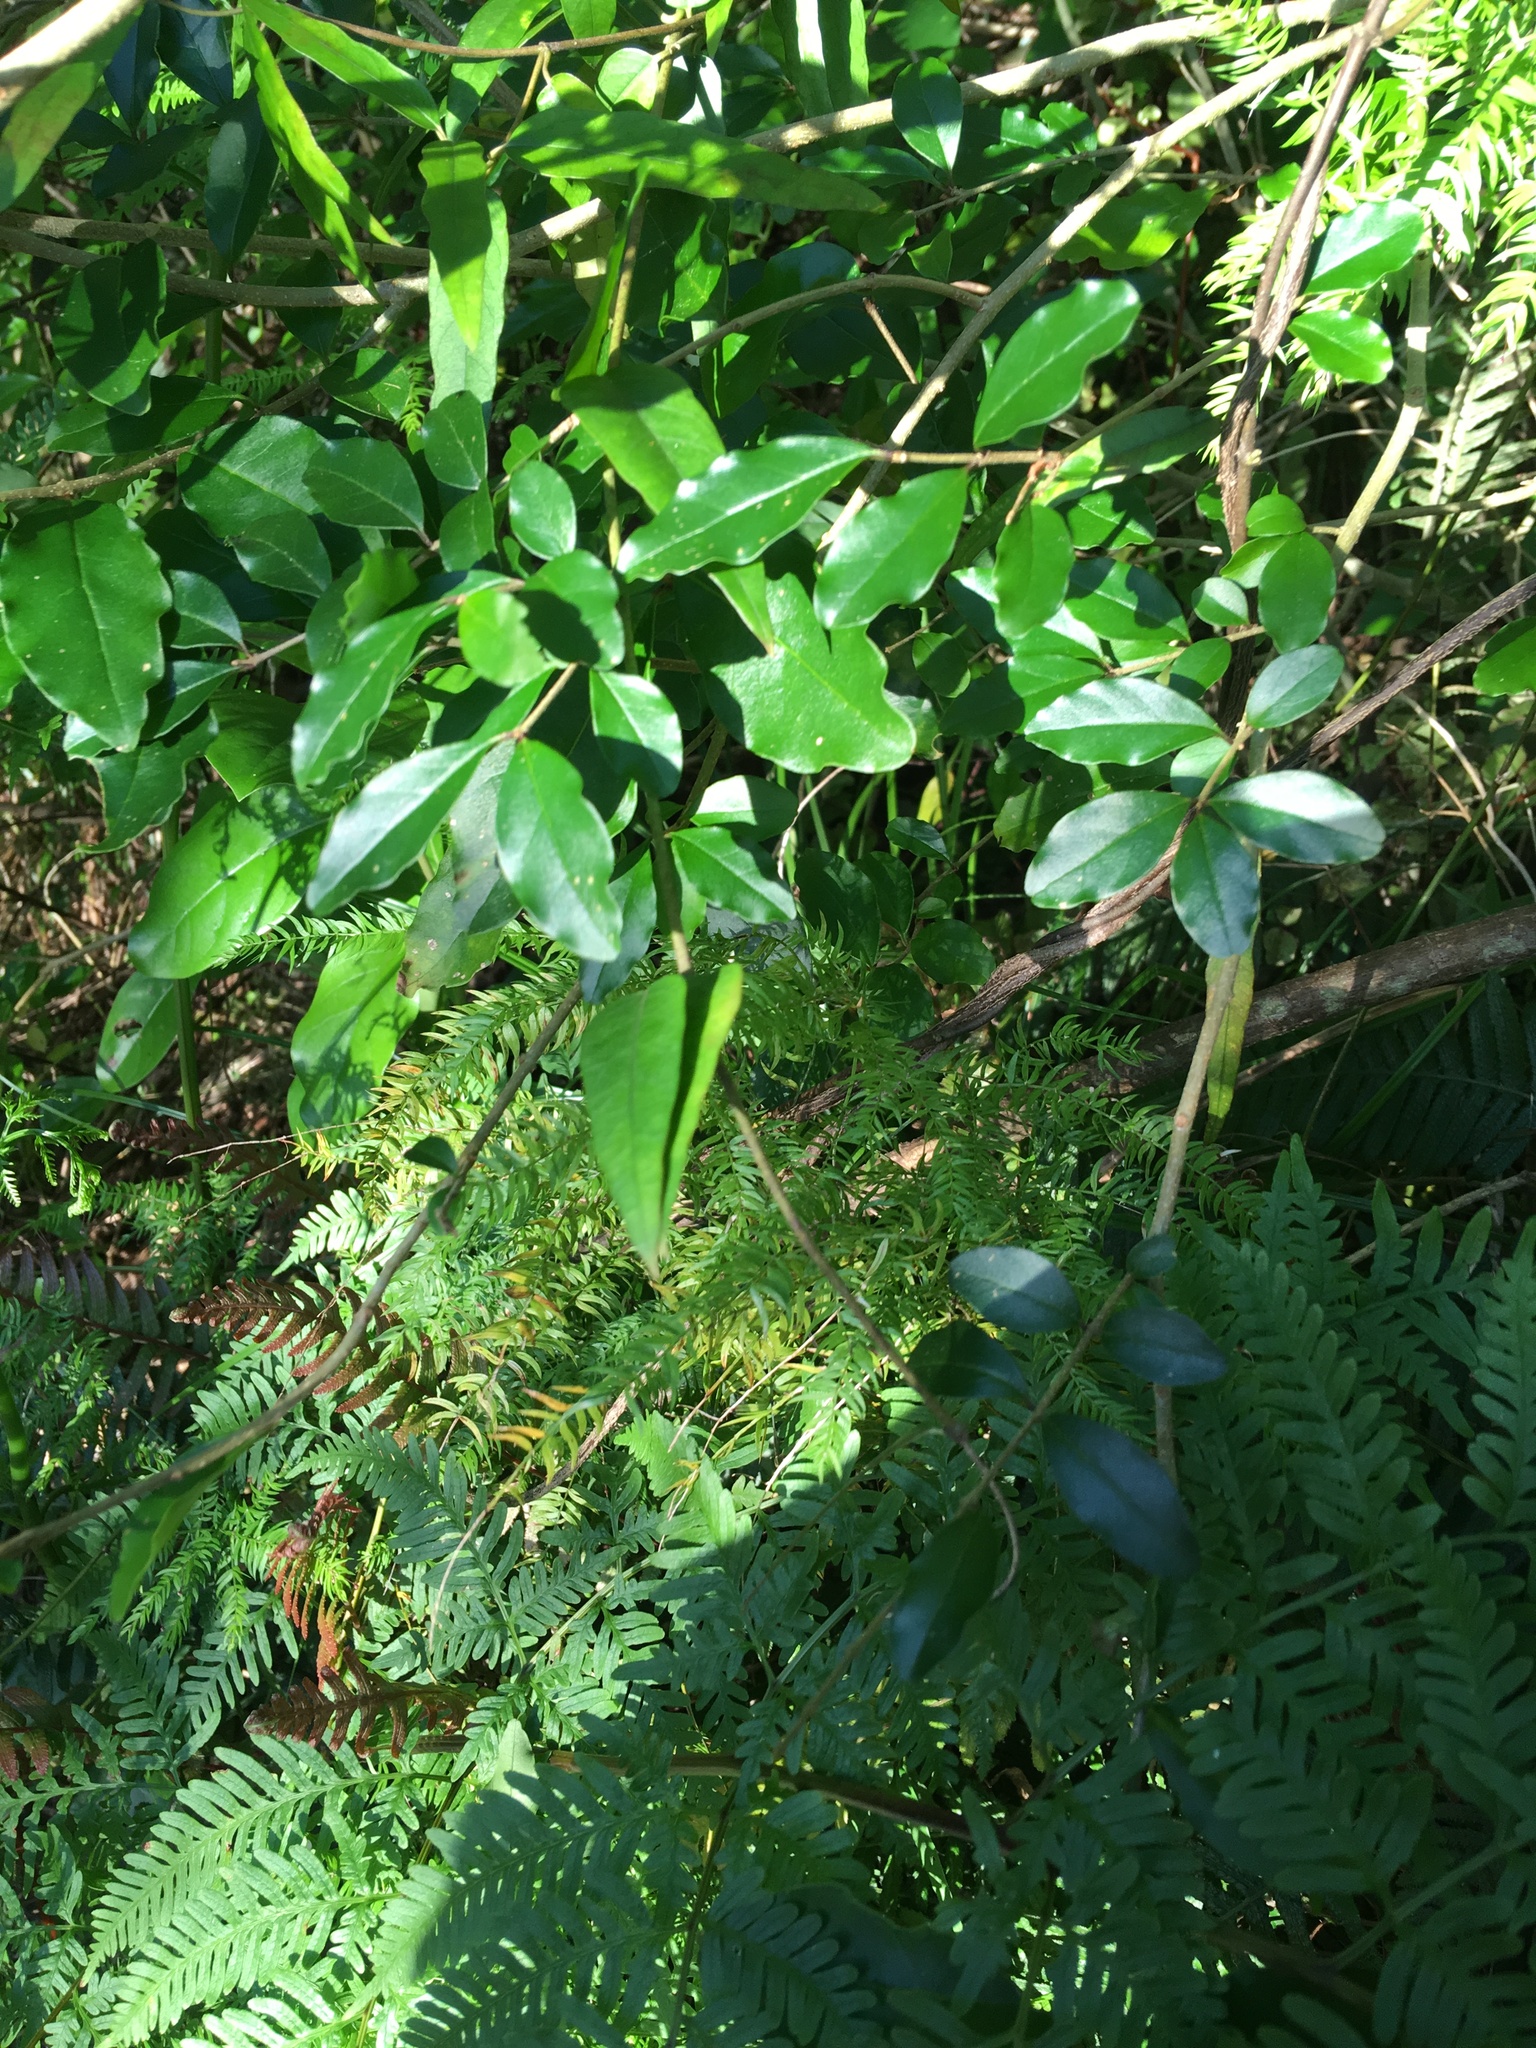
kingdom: Plantae
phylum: Tracheophyta
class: Magnoliopsida
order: Lamiales
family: Oleaceae
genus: Ligustrum
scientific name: Ligustrum sinense
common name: Chinese privet
